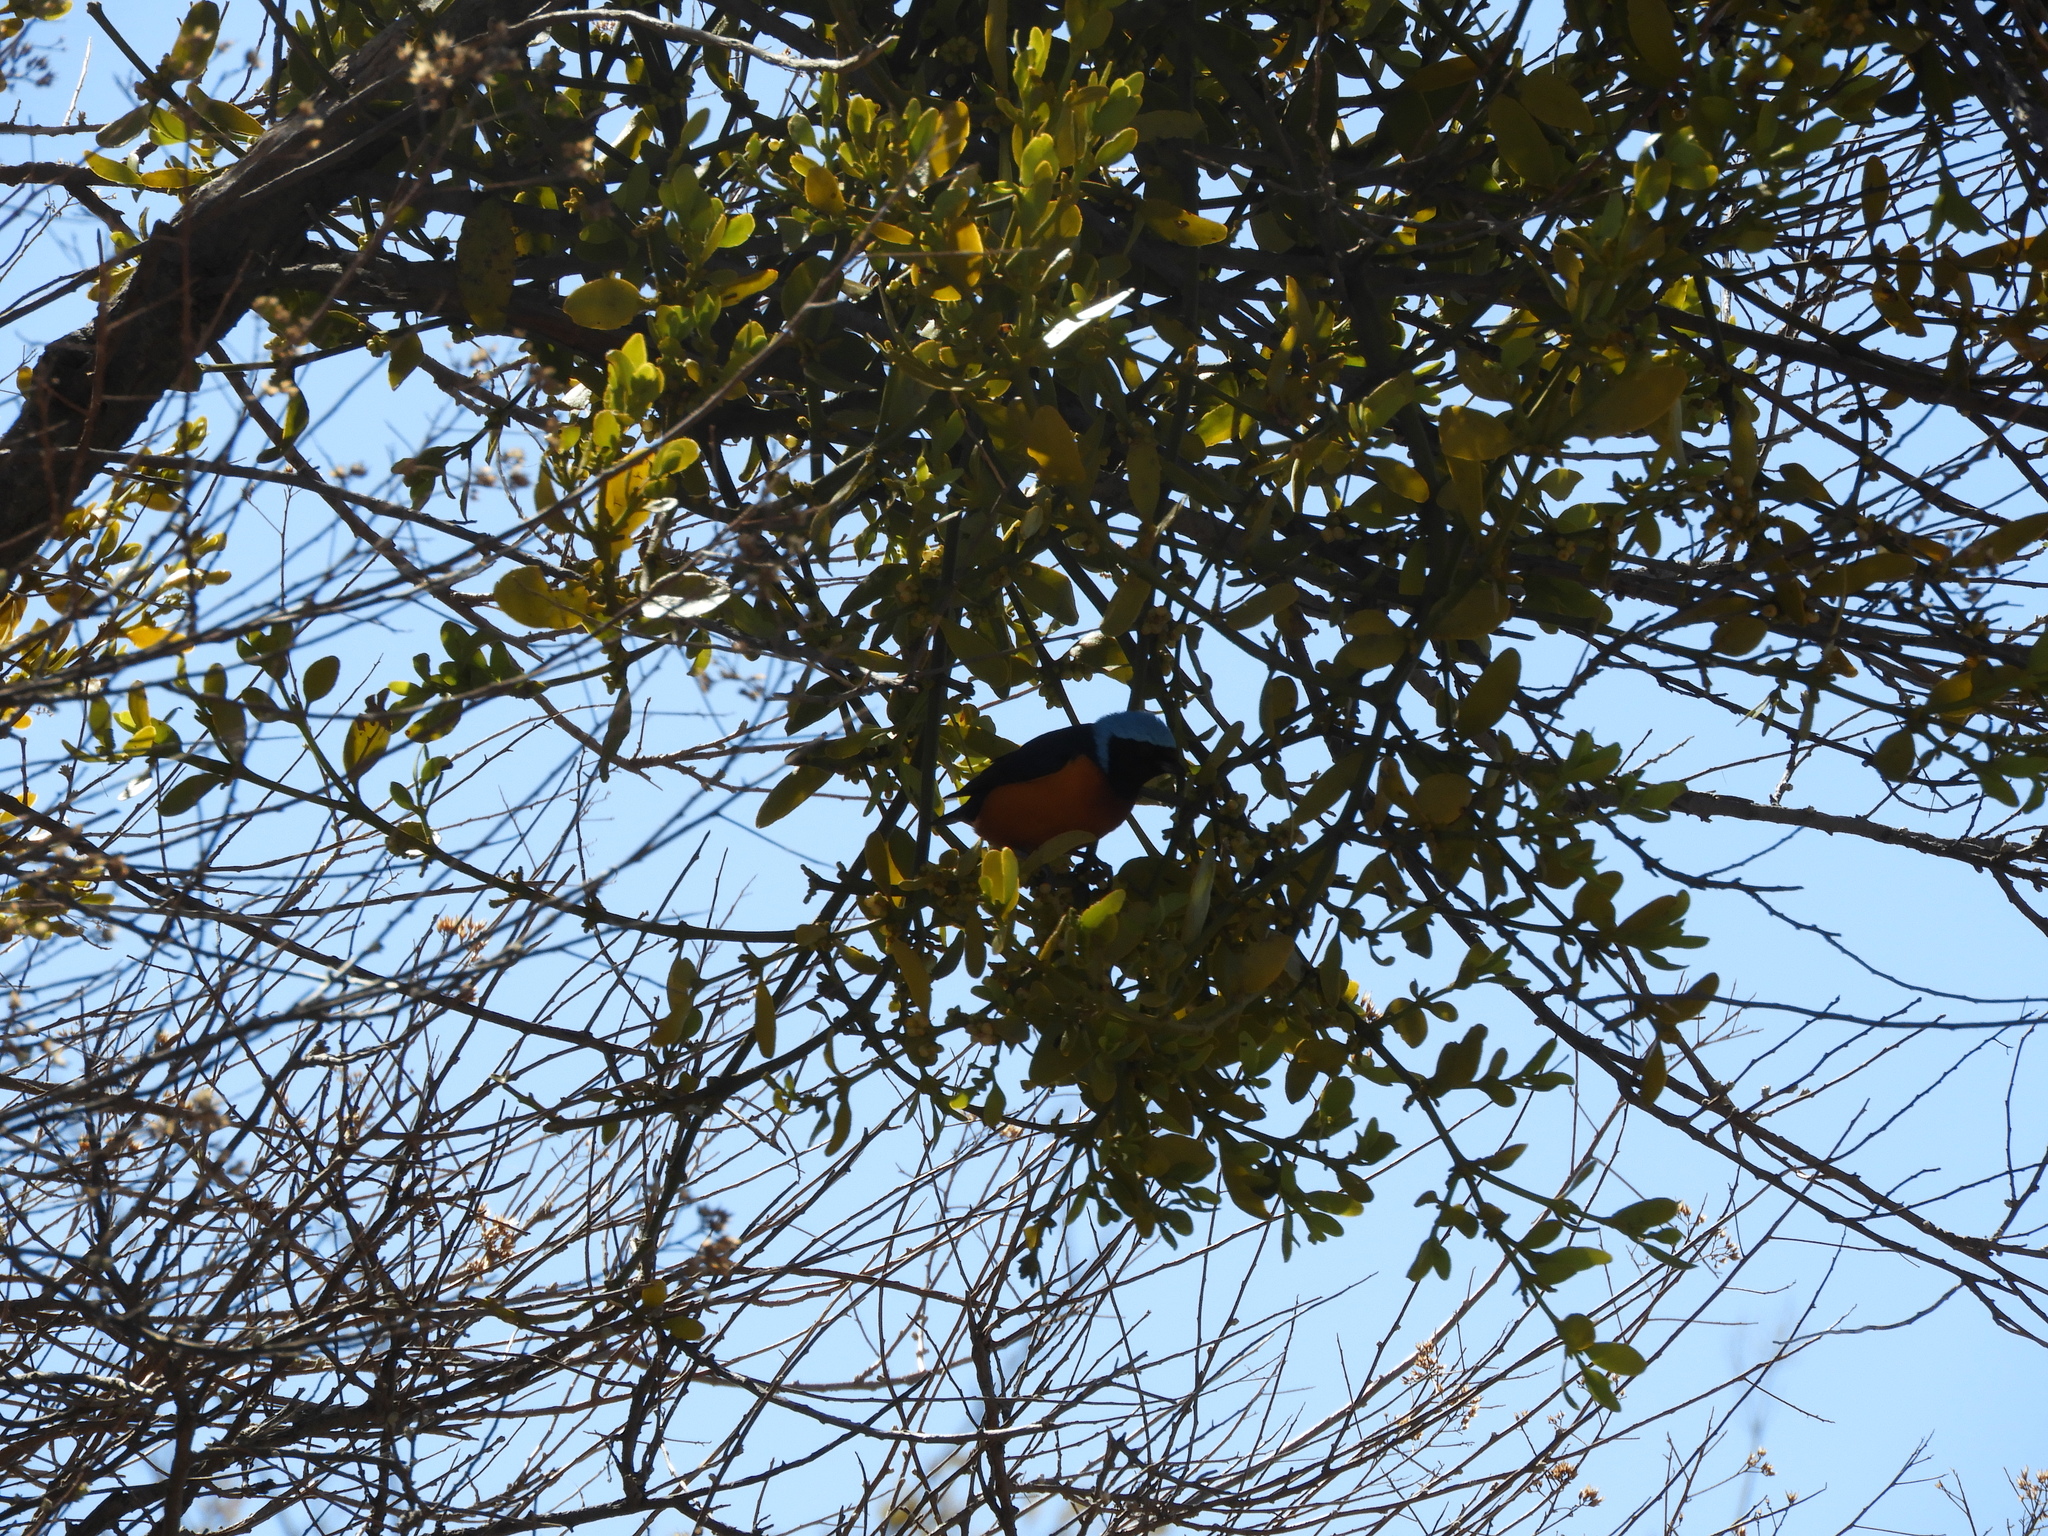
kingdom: Animalia
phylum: Chordata
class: Aves
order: Passeriformes
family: Fringillidae
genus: Euphonia
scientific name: Euphonia elegantissima
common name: Elegant euphonia
